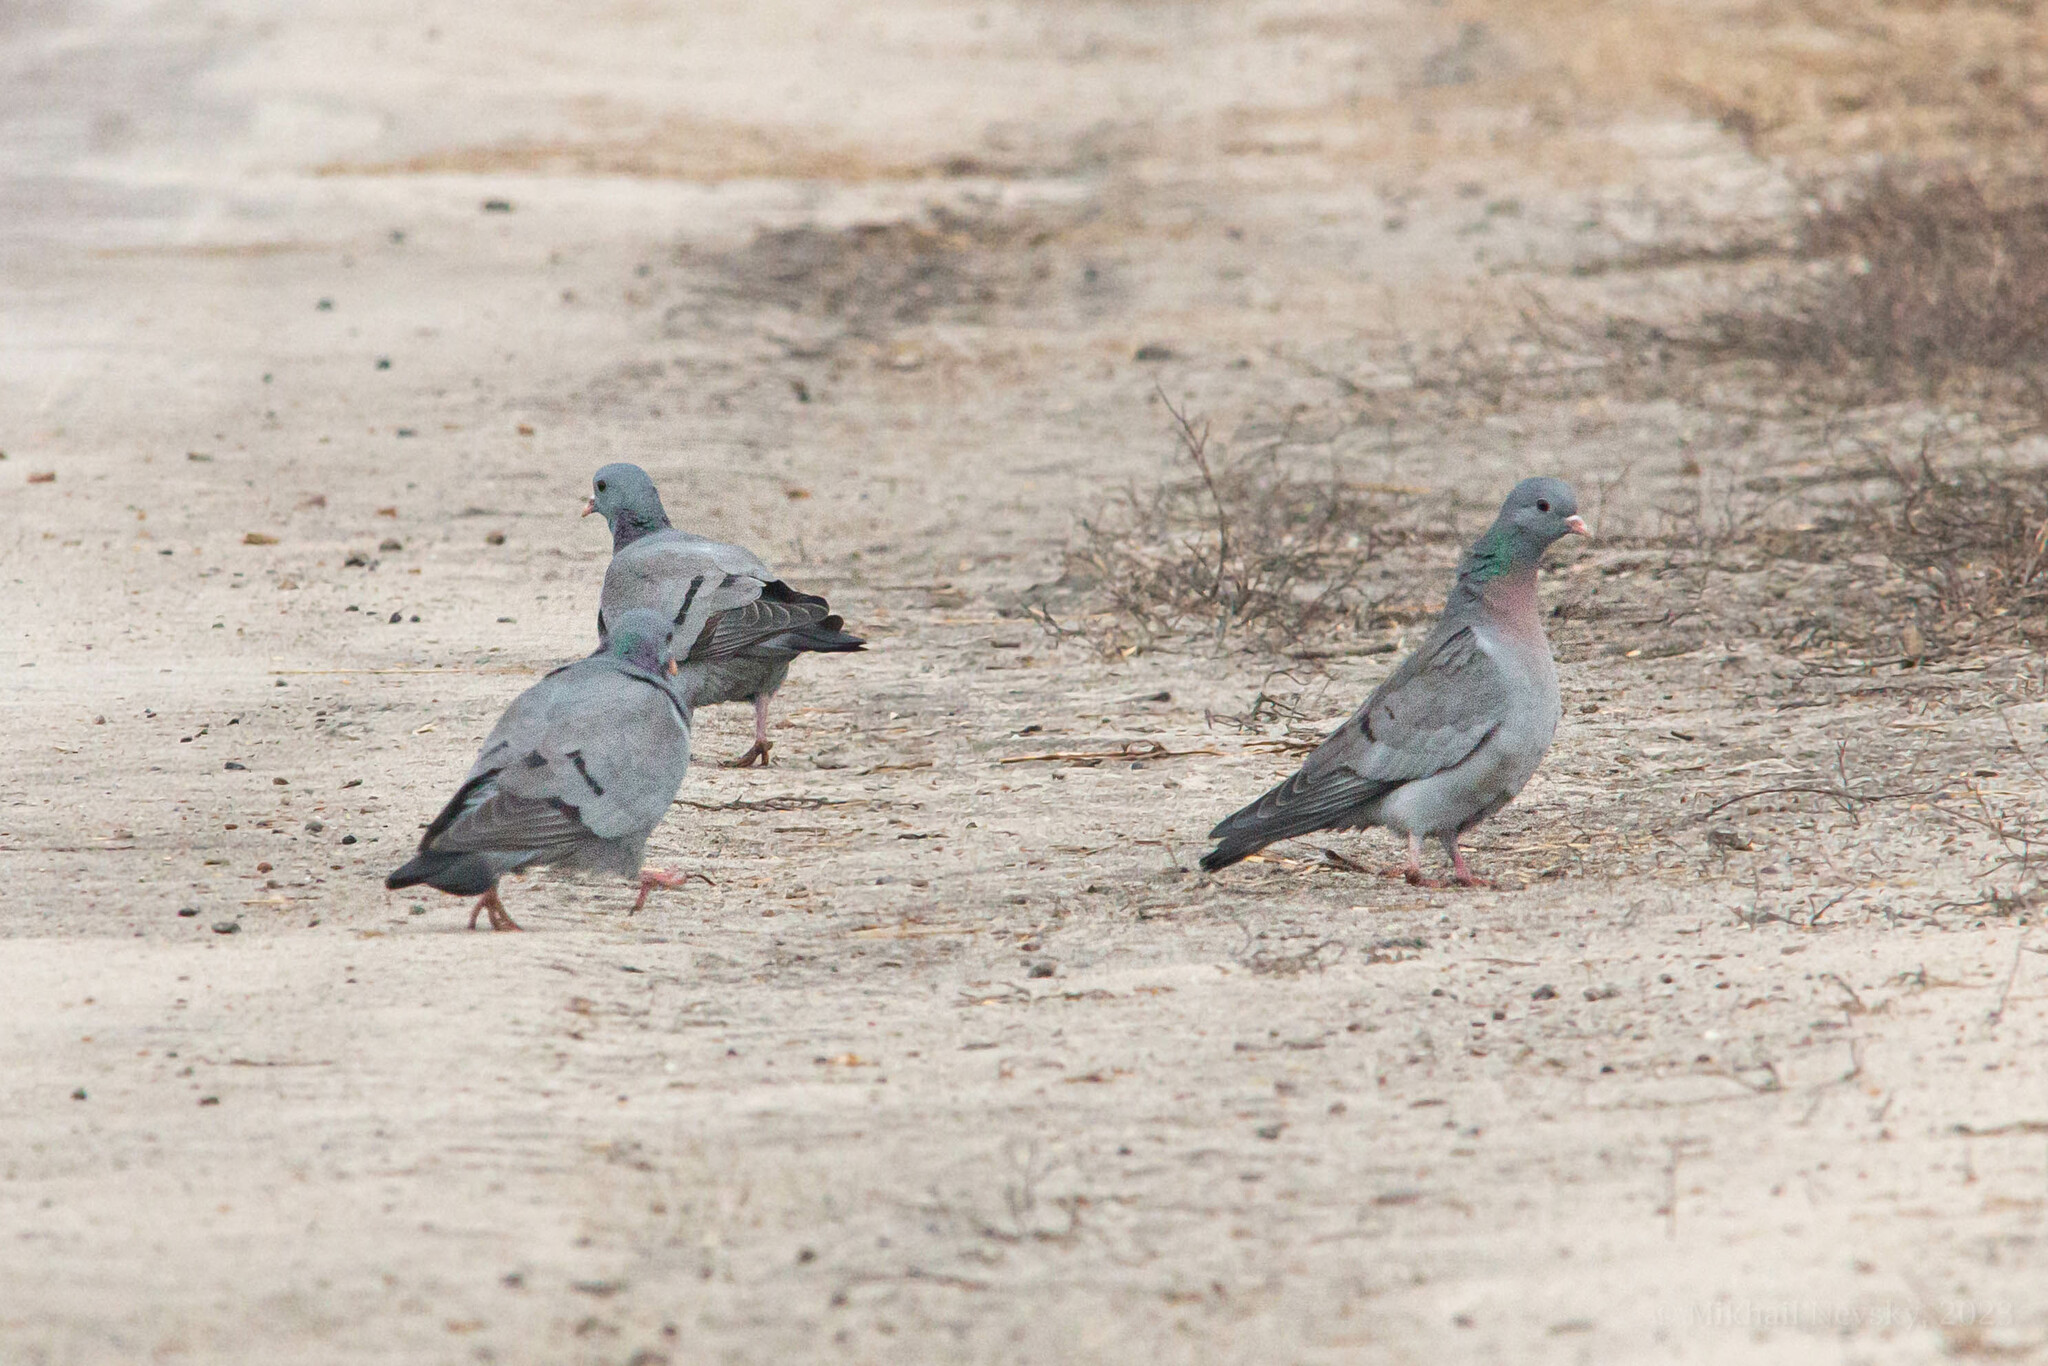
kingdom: Animalia
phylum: Chordata
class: Aves
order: Columbiformes
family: Columbidae
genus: Columba
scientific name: Columba oenas
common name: Stock dove
